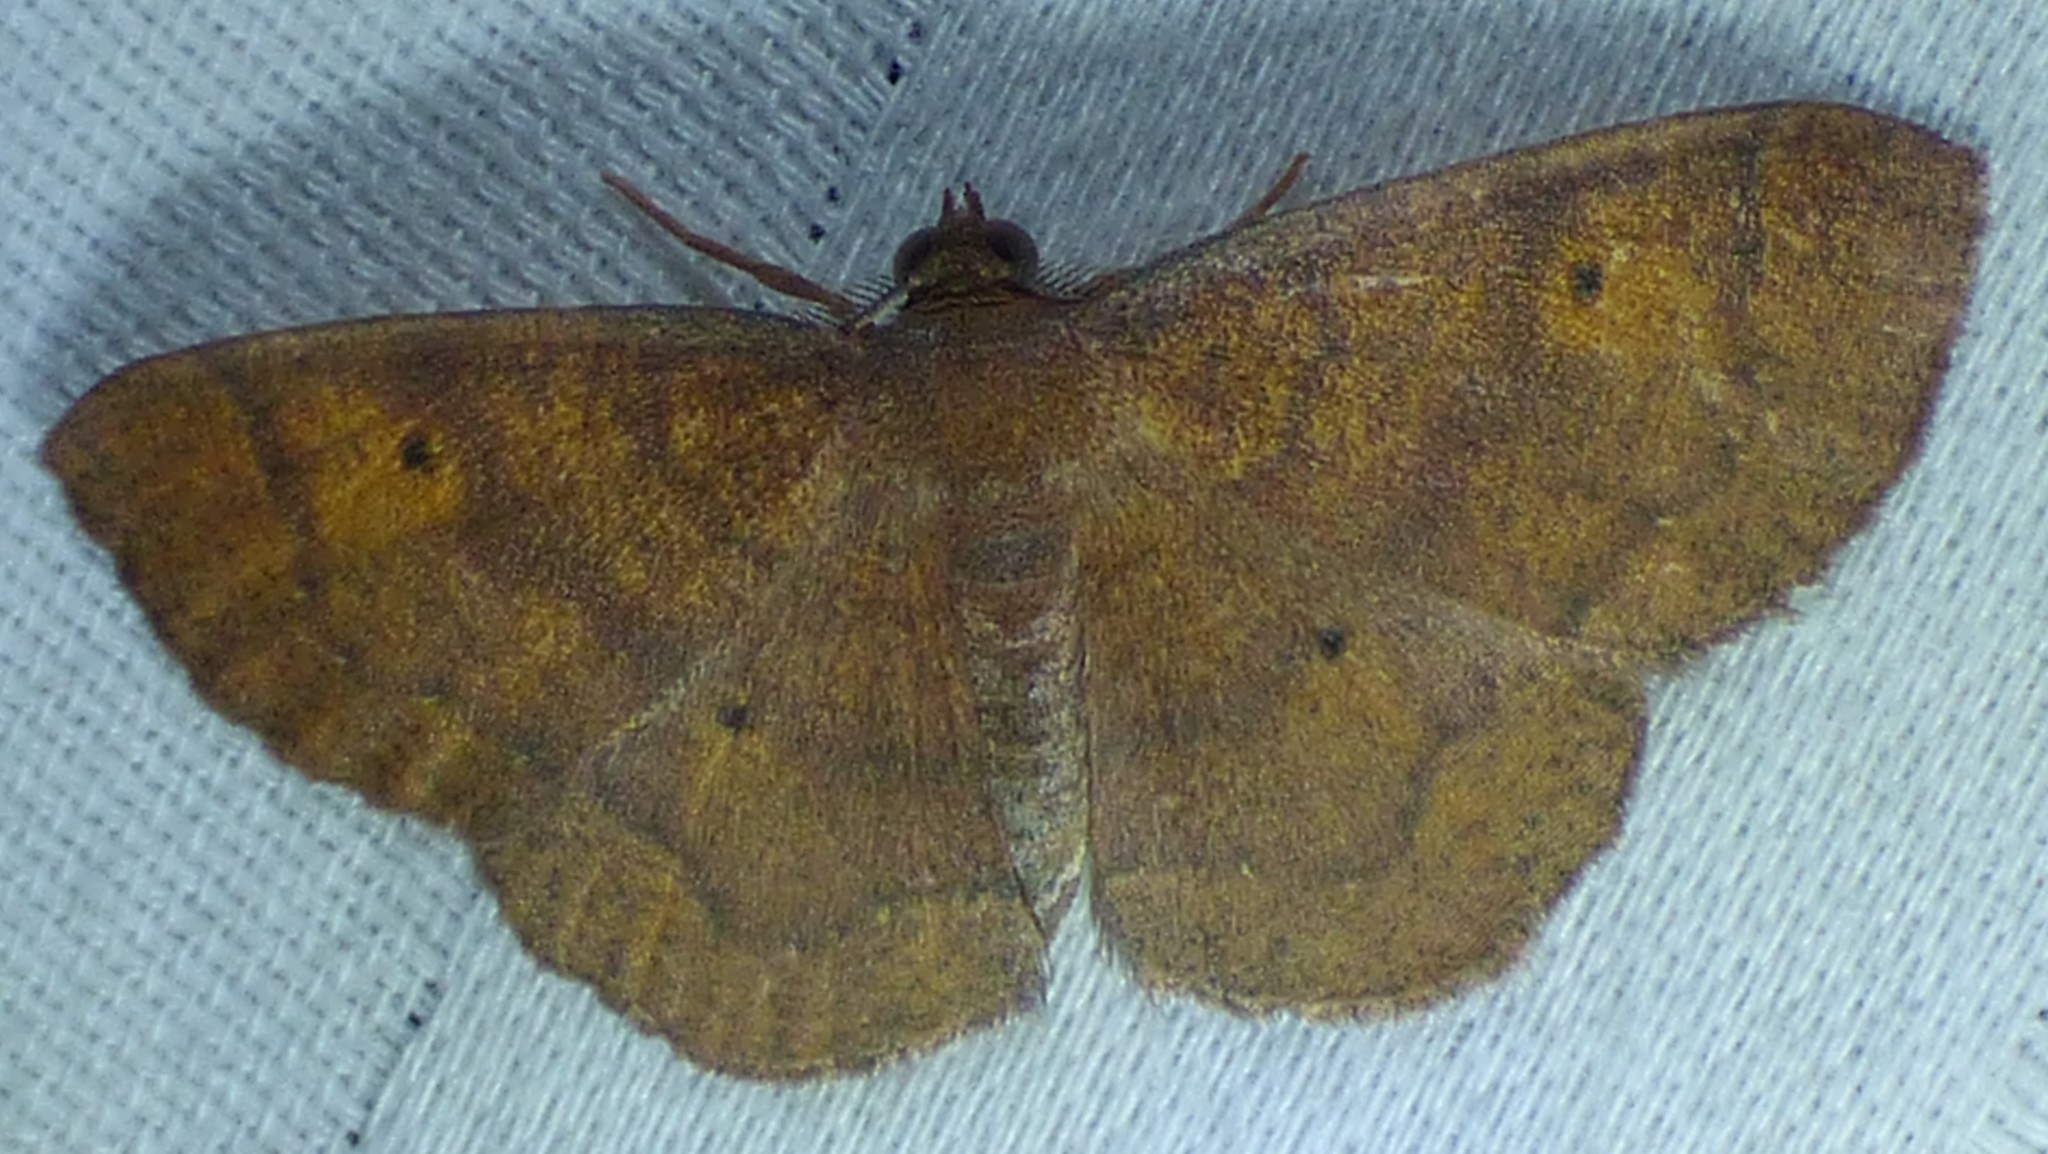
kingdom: Animalia
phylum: Arthropoda
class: Insecta
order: Lepidoptera
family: Geometridae
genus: Ilexia
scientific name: Ilexia intractata
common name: Black-dotted ruddy moth
